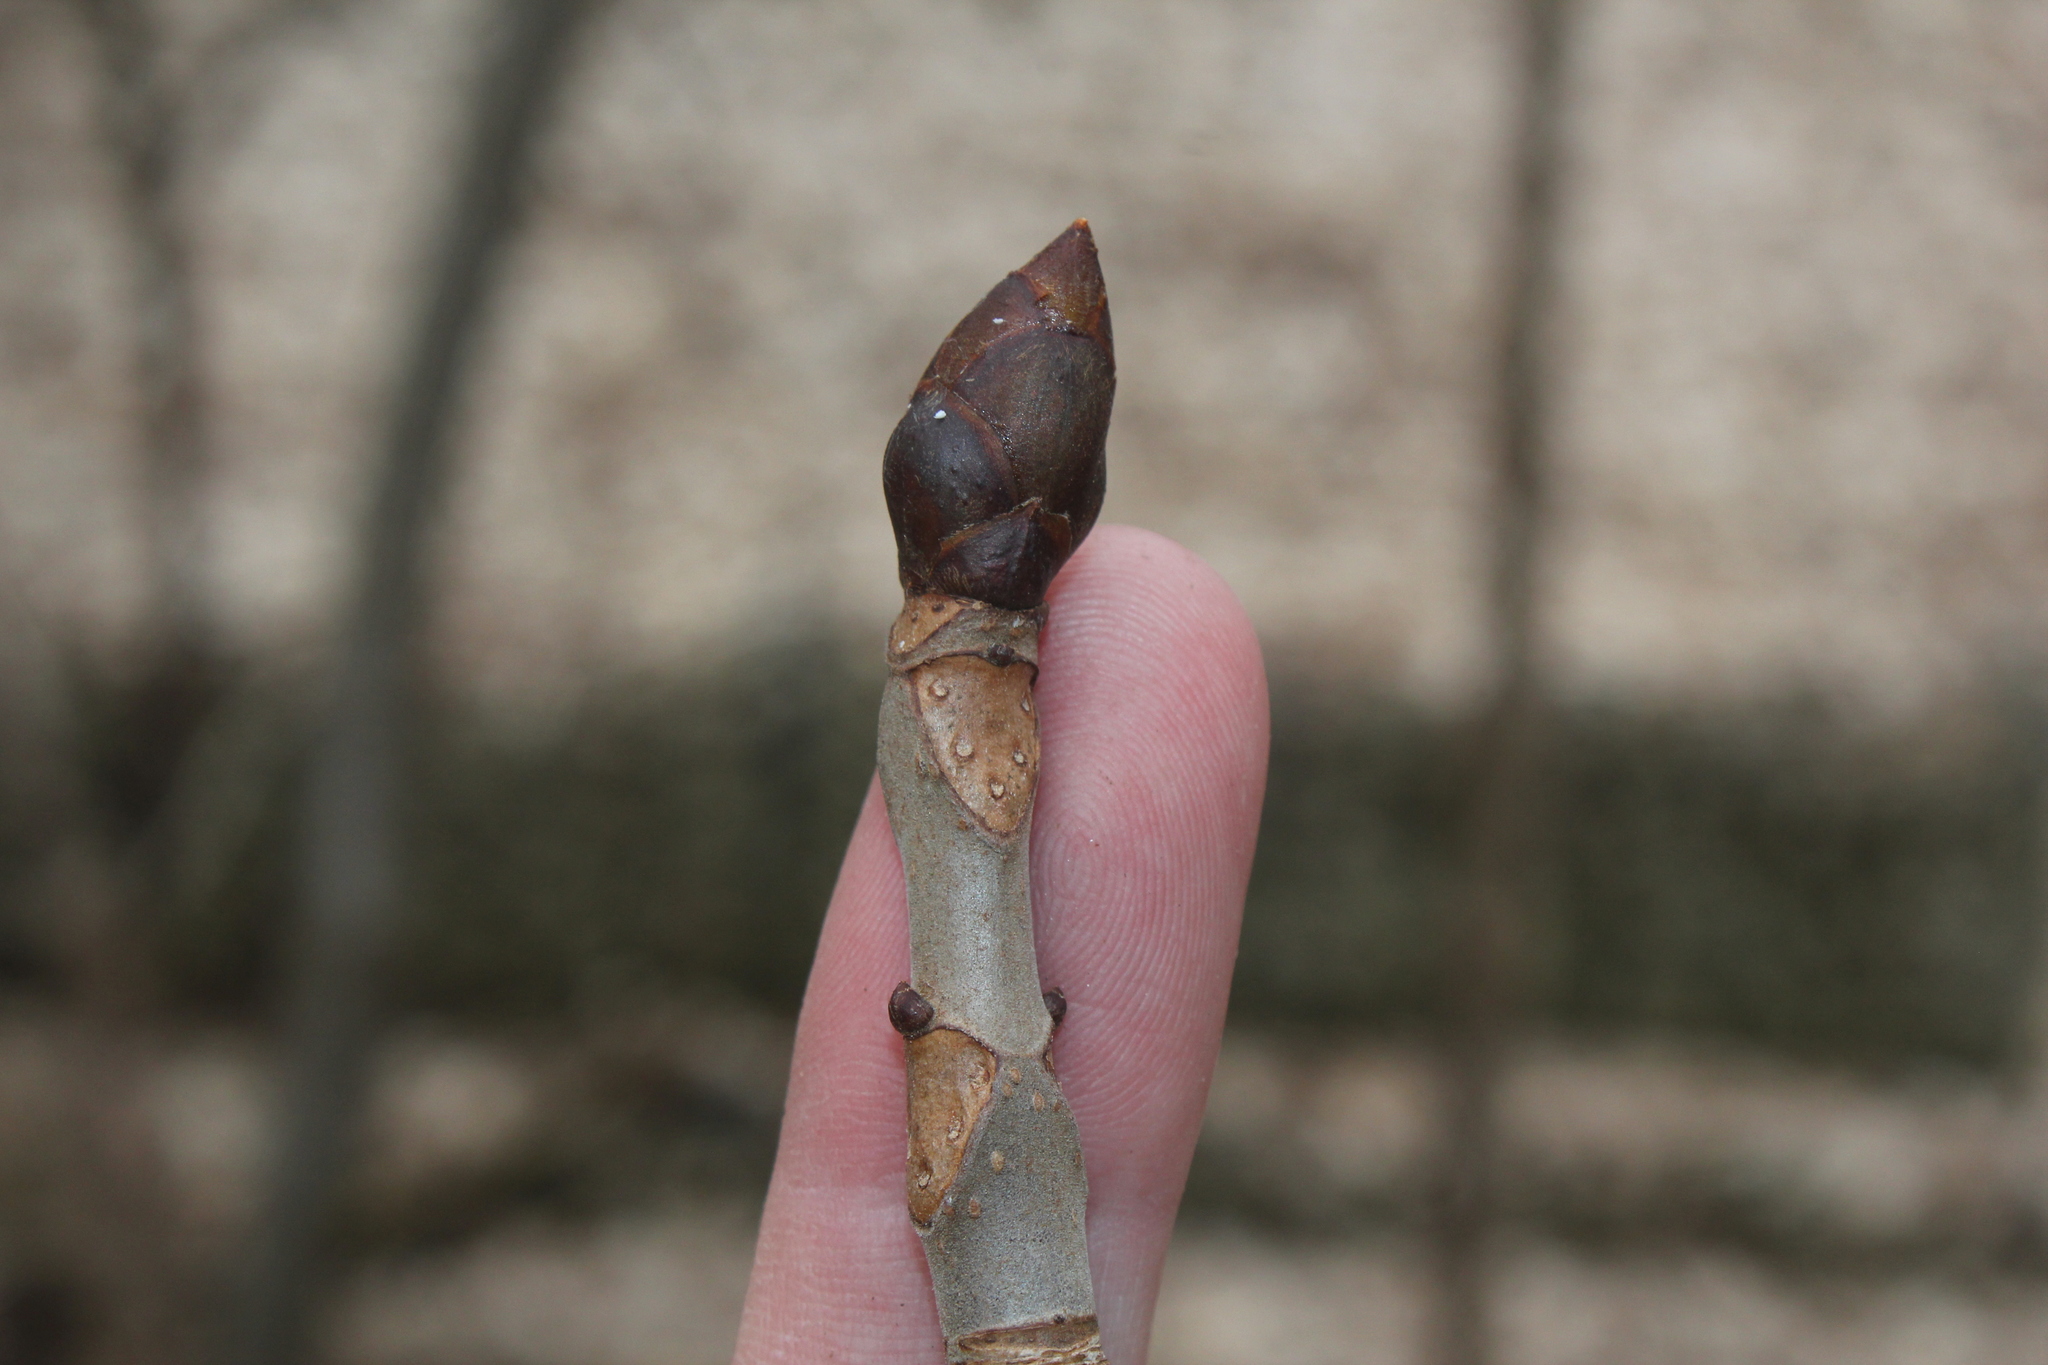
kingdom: Plantae
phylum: Tracheophyta
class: Magnoliopsida
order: Sapindales
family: Sapindaceae
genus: Aesculus
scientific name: Aesculus hippocastanum
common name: Horse-chestnut
